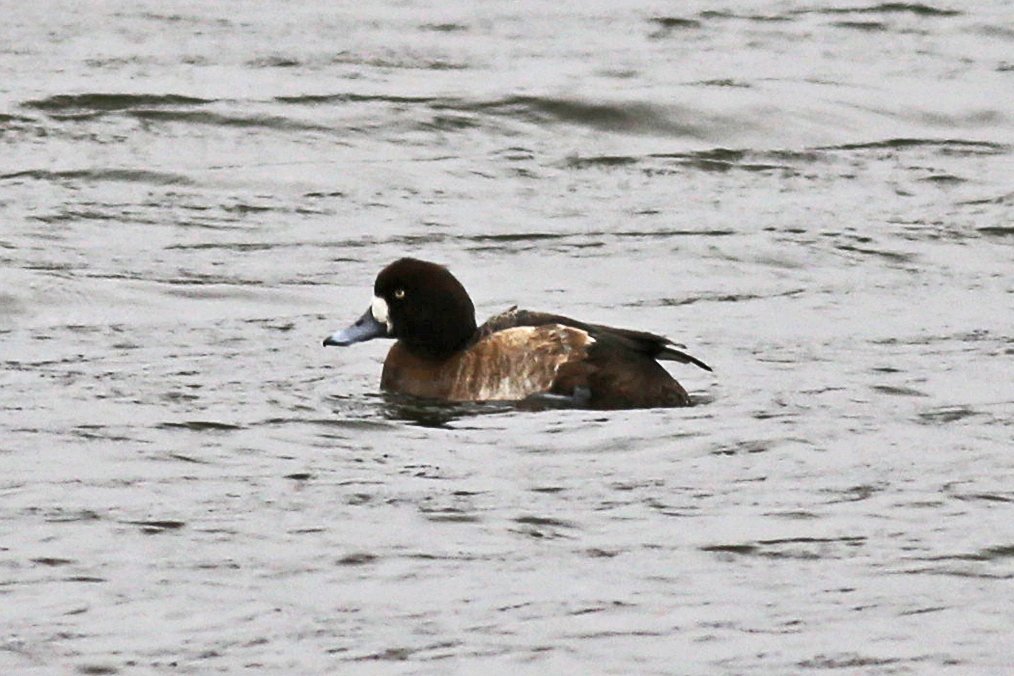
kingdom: Animalia
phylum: Chordata
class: Aves
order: Anseriformes
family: Anatidae
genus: Aythya
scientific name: Aythya marila
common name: Greater scaup
